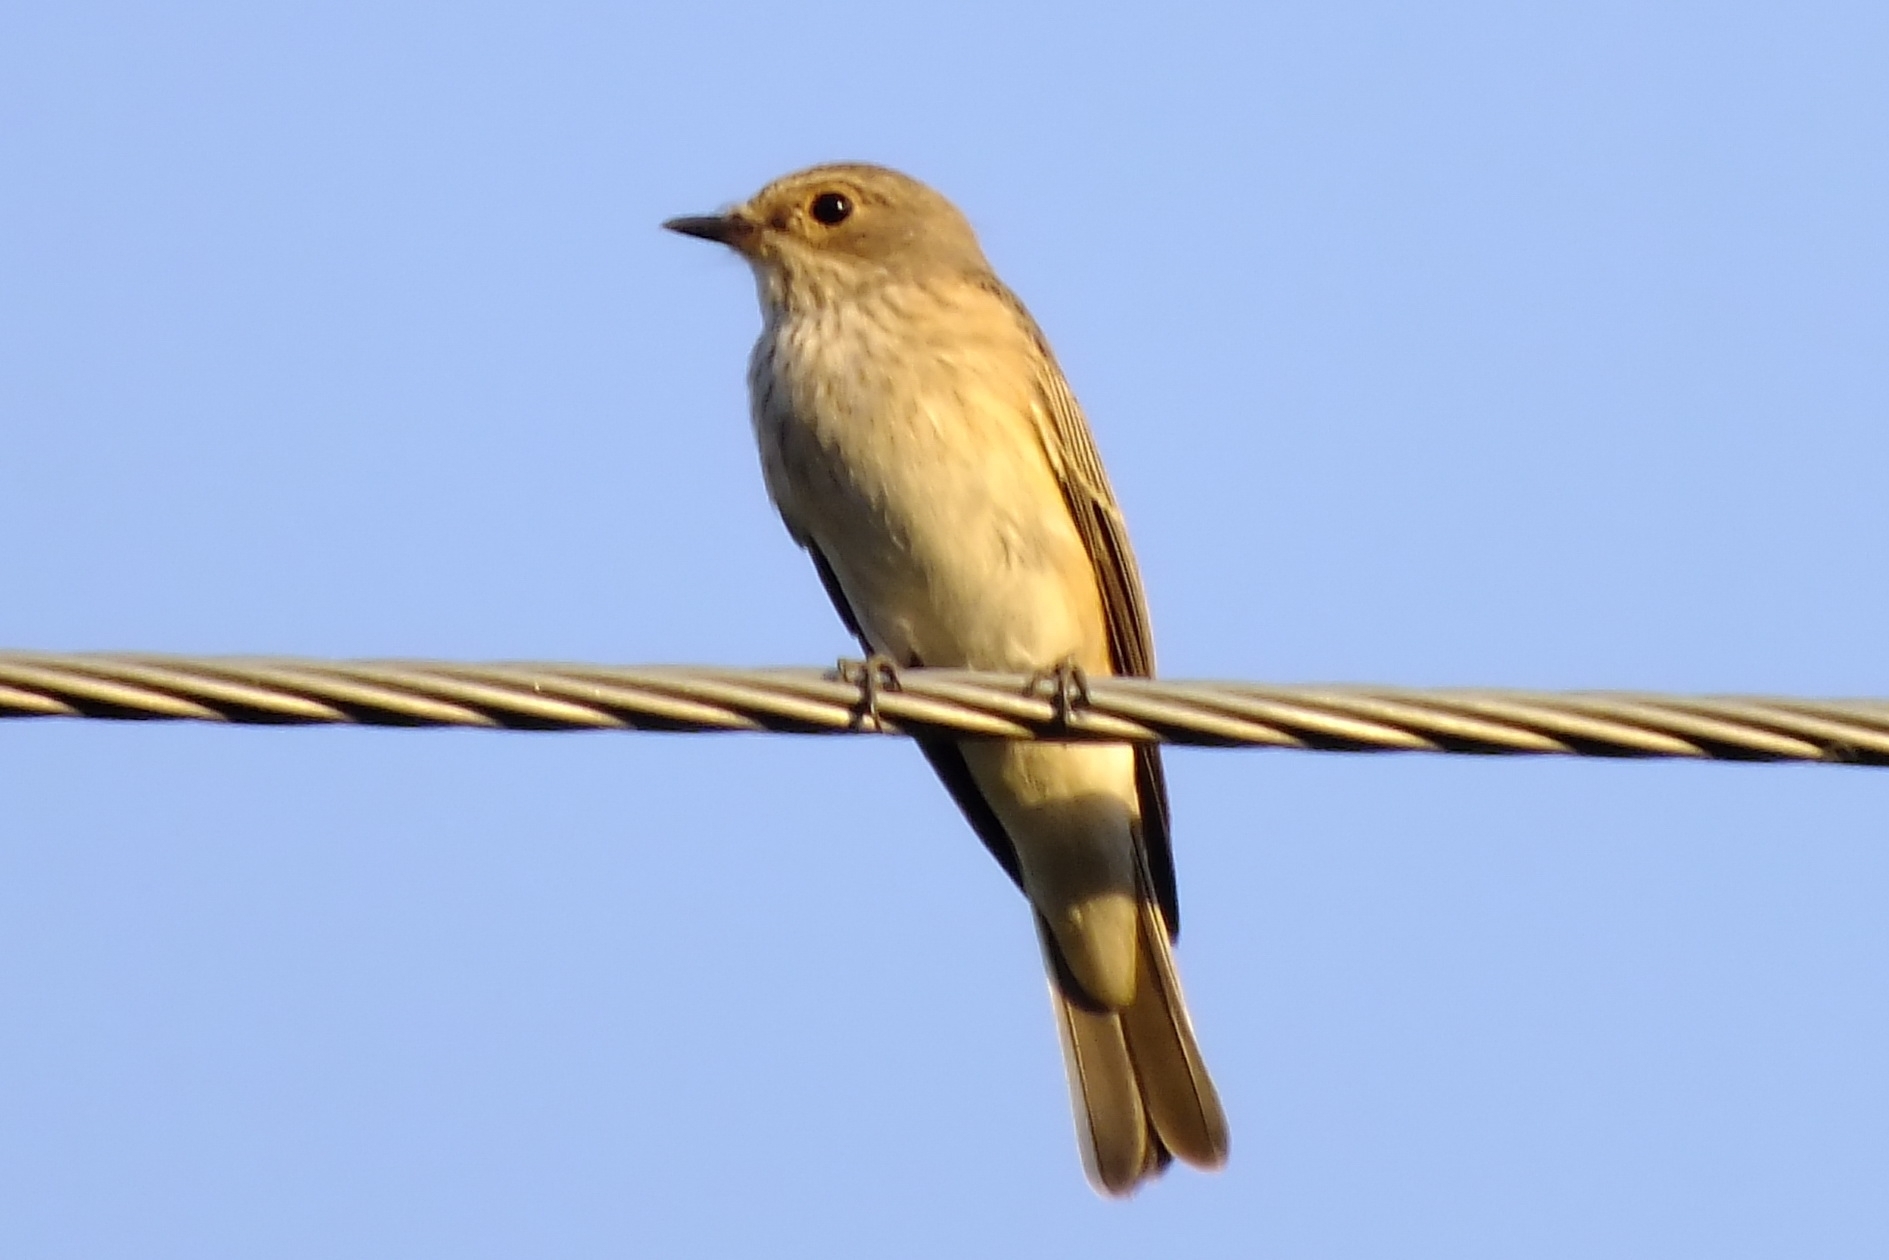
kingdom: Animalia
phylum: Chordata
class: Aves
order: Passeriformes
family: Muscicapidae
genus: Muscicapa
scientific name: Muscicapa striata
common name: Spotted flycatcher
